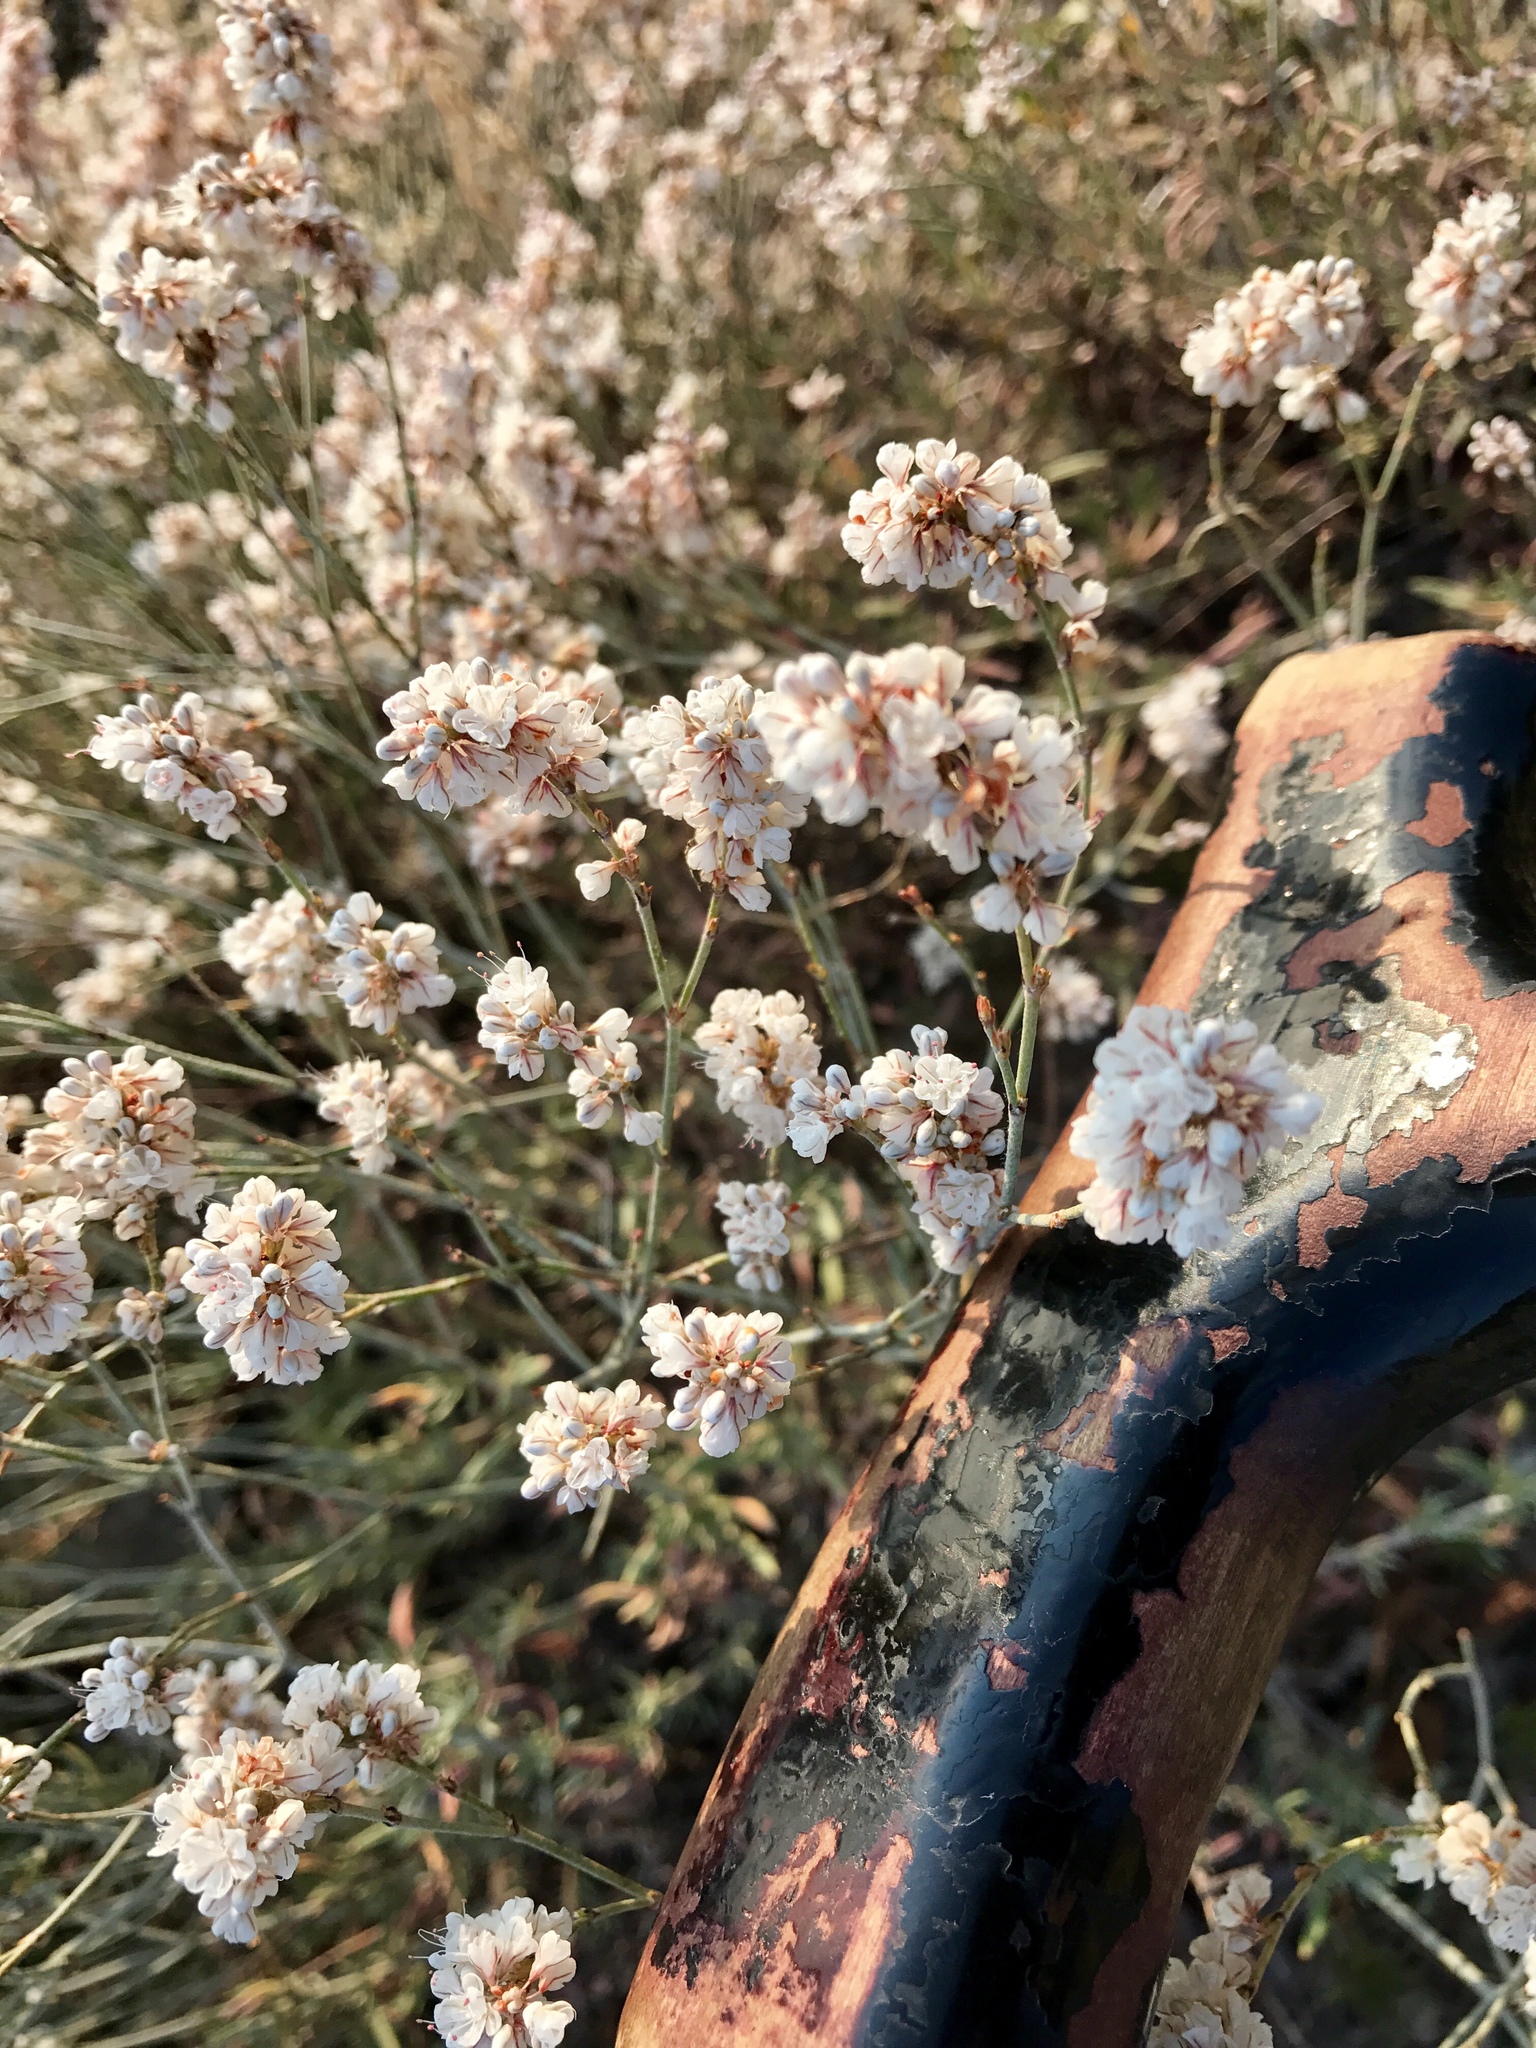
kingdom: Plantae
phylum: Tracheophyta
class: Magnoliopsida
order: Caryophyllales
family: Polygonaceae
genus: Eriogonum
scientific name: Eriogonum fasciculatum
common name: California wild buckwheat
